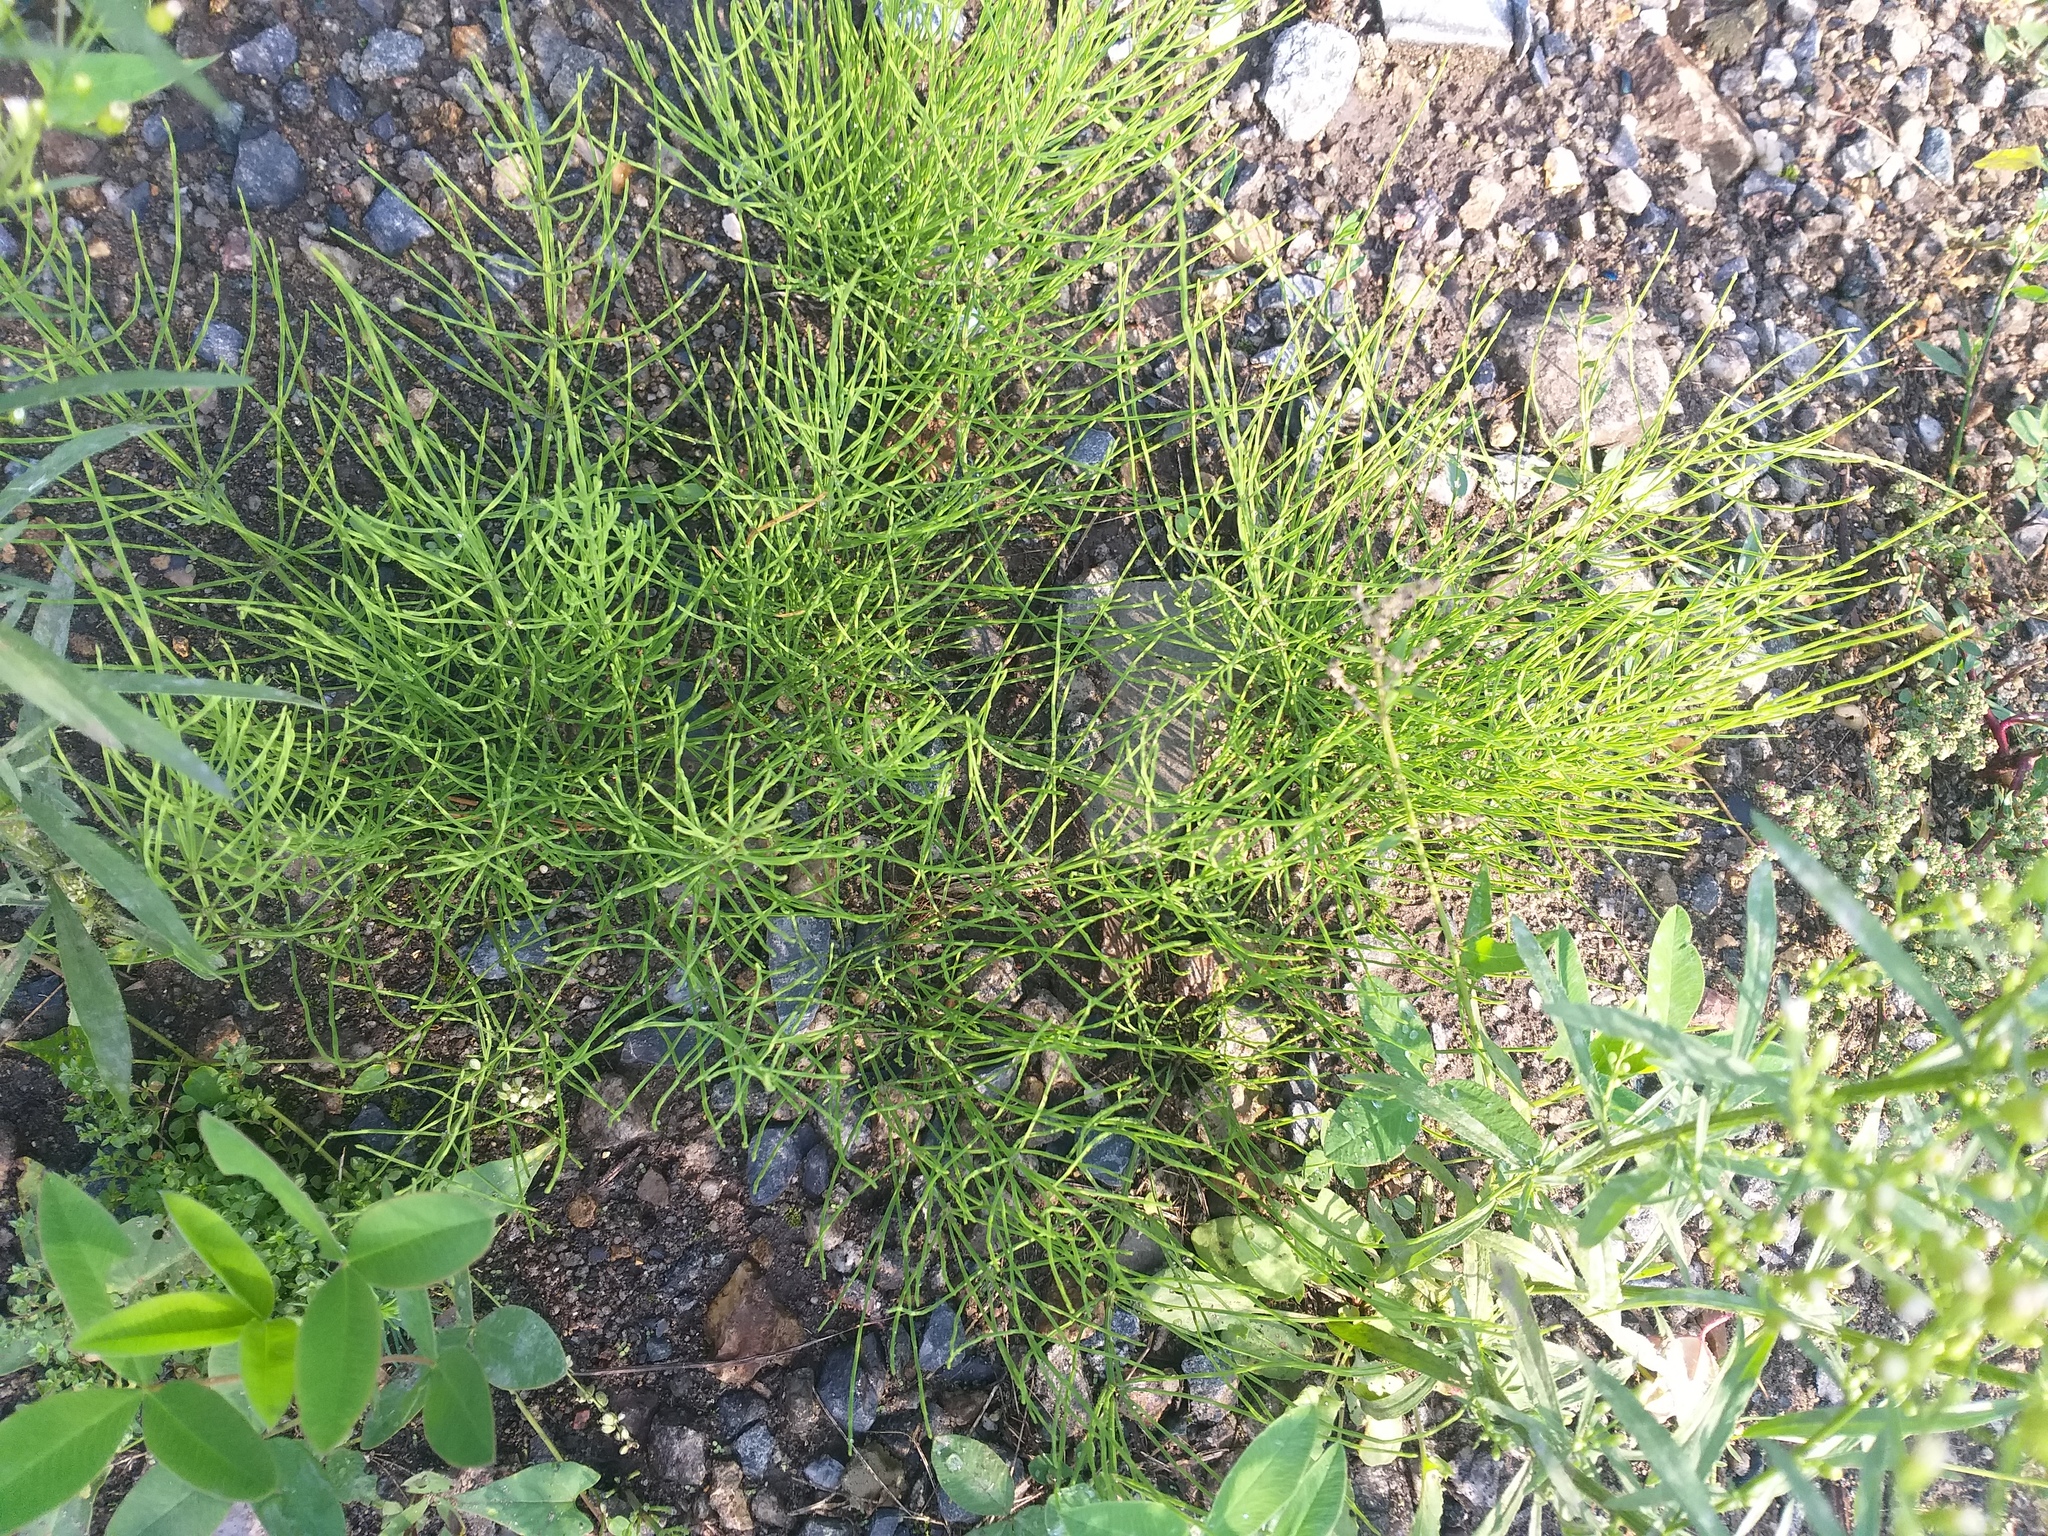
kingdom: Plantae
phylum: Tracheophyta
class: Polypodiopsida
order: Equisetales
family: Equisetaceae
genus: Equisetum
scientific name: Equisetum arvense
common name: Field horsetail
